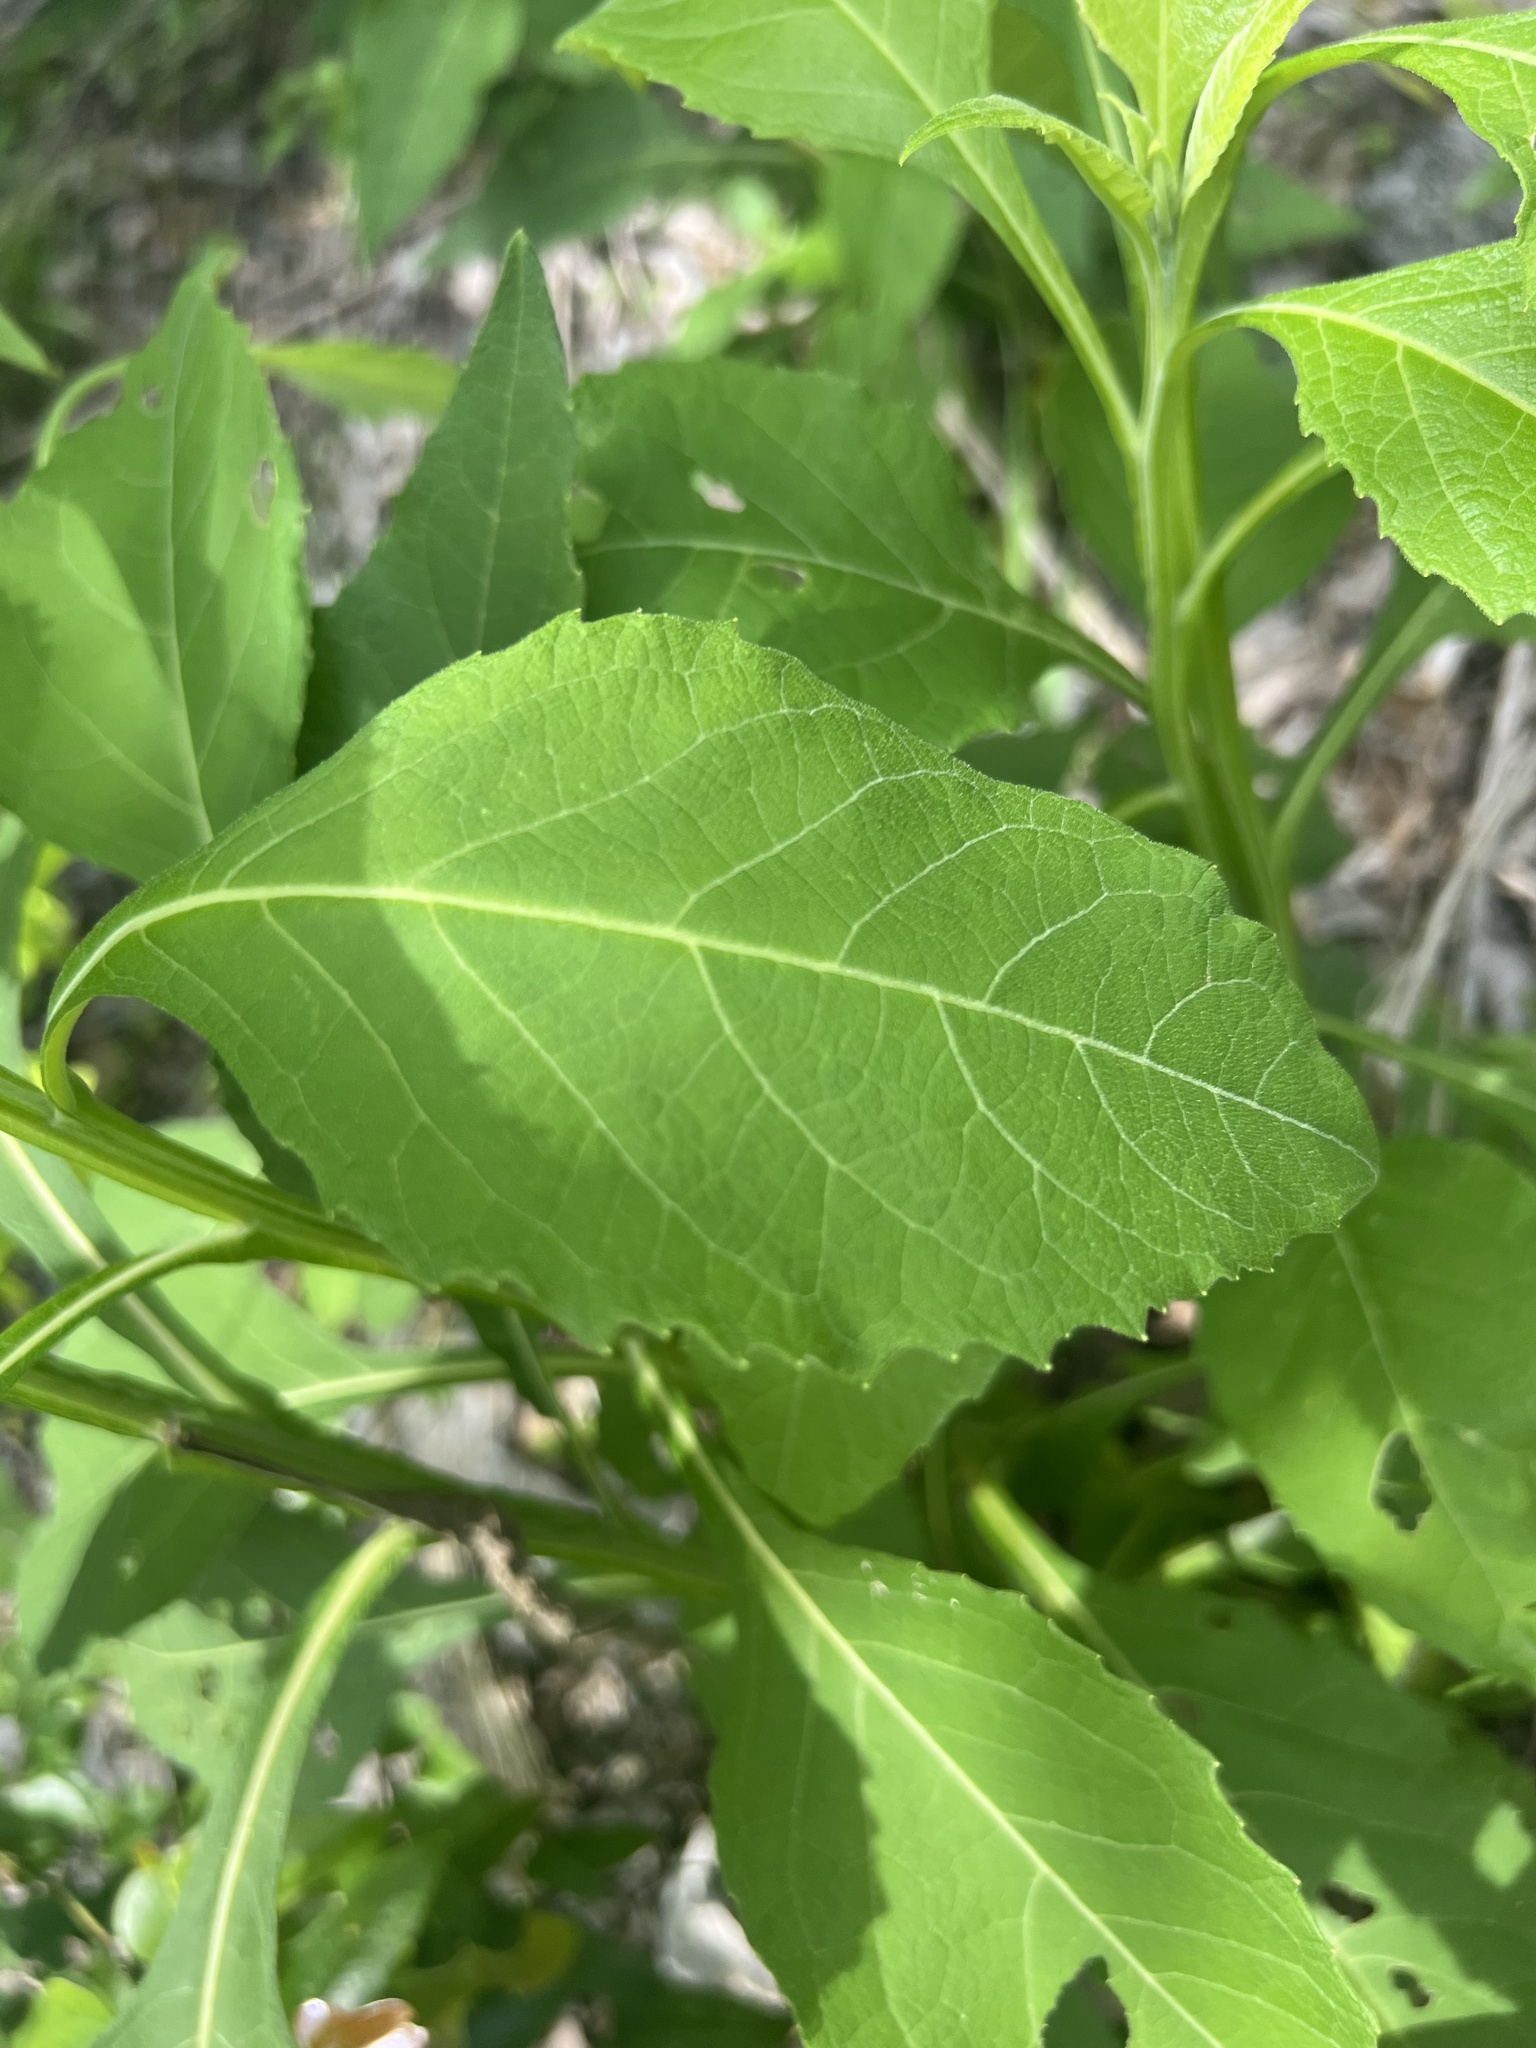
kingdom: Plantae
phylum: Tracheophyta
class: Magnoliopsida
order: Asterales
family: Asteraceae
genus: Verbesina
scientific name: Verbesina virginica
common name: Frostweed
